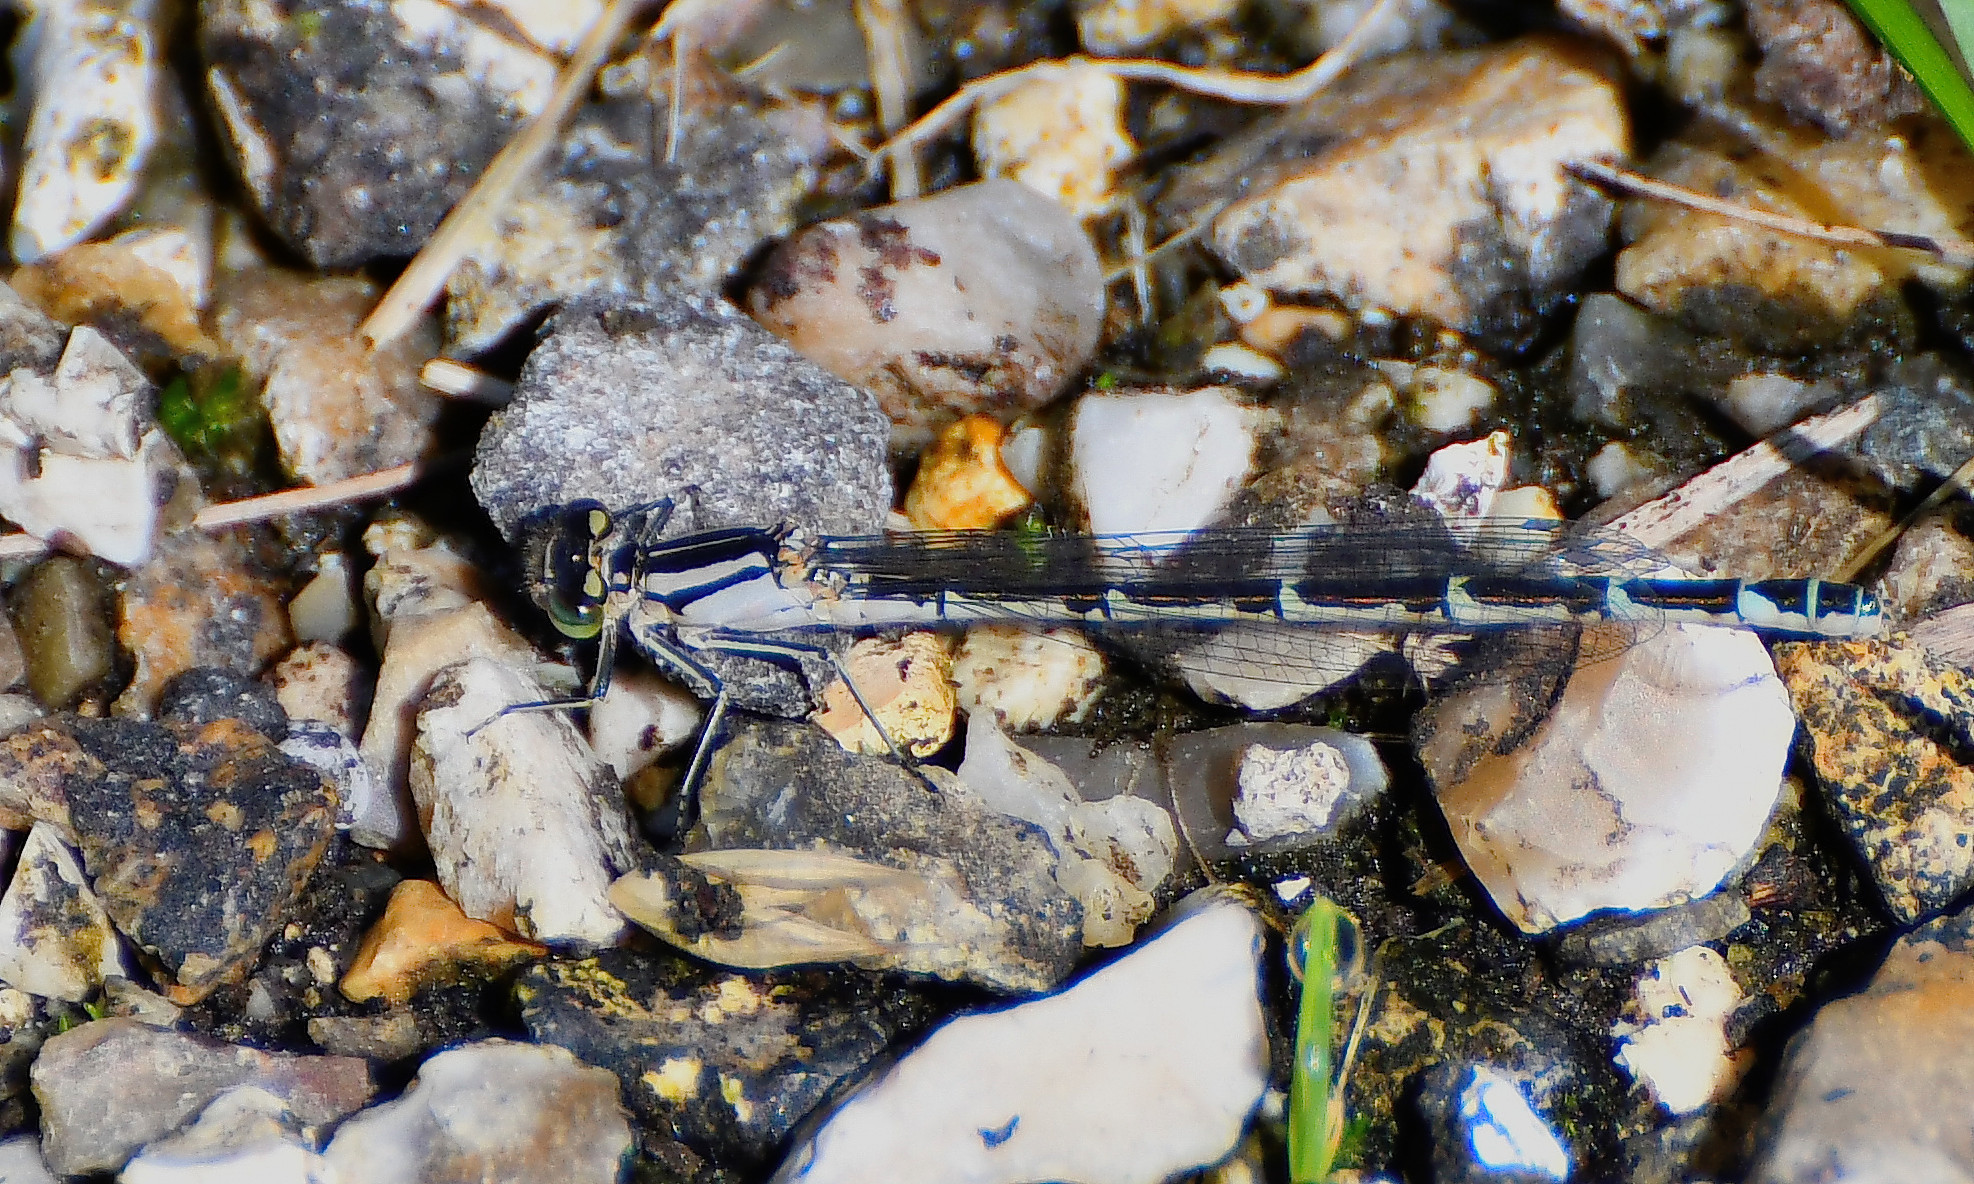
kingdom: Animalia
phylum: Arthropoda
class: Insecta
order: Odonata
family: Coenagrionidae
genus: Enallagma
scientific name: Enallagma cyathigerum
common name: Common blue damselfly
